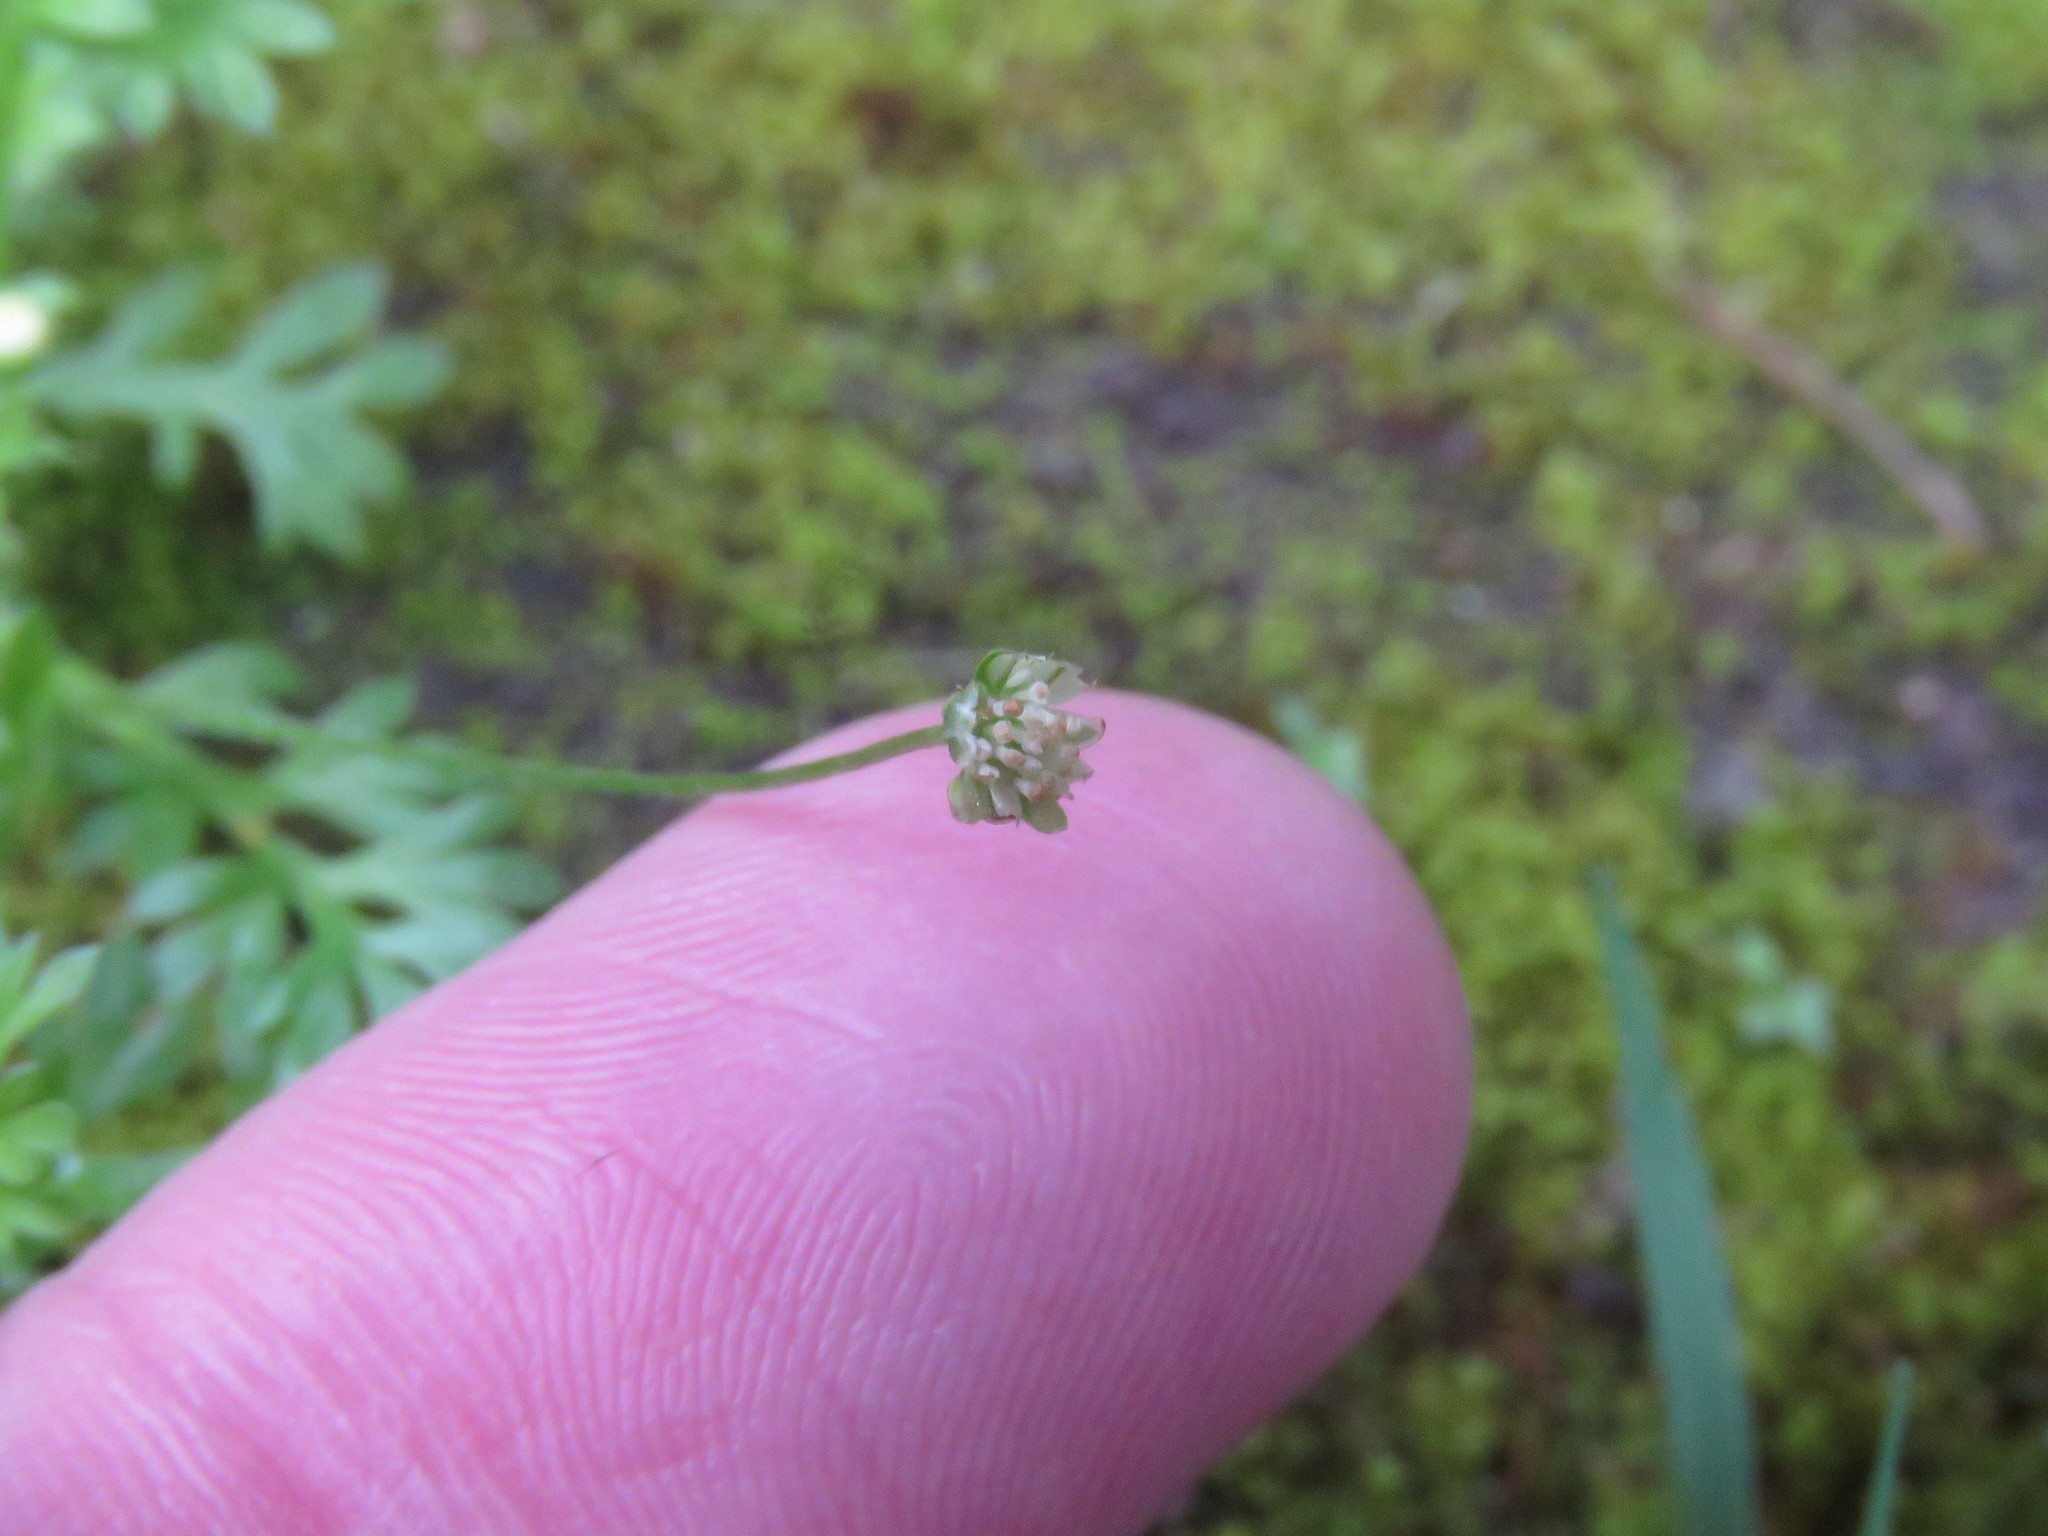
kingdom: Plantae
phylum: Tracheophyta
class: Magnoliopsida
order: Asterales
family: Asteraceae
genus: Cotula
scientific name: Cotula australis
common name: Australian waterbuttons
